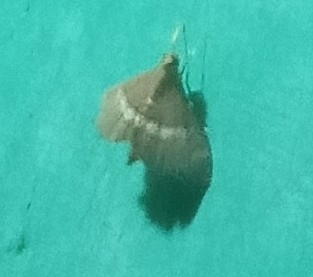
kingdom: Animalia
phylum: Arthropoda
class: Insecta
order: Lepidoptera
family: Crambidae
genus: Spoladea
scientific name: Spoladea recurvalis
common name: Beet webworm moth
